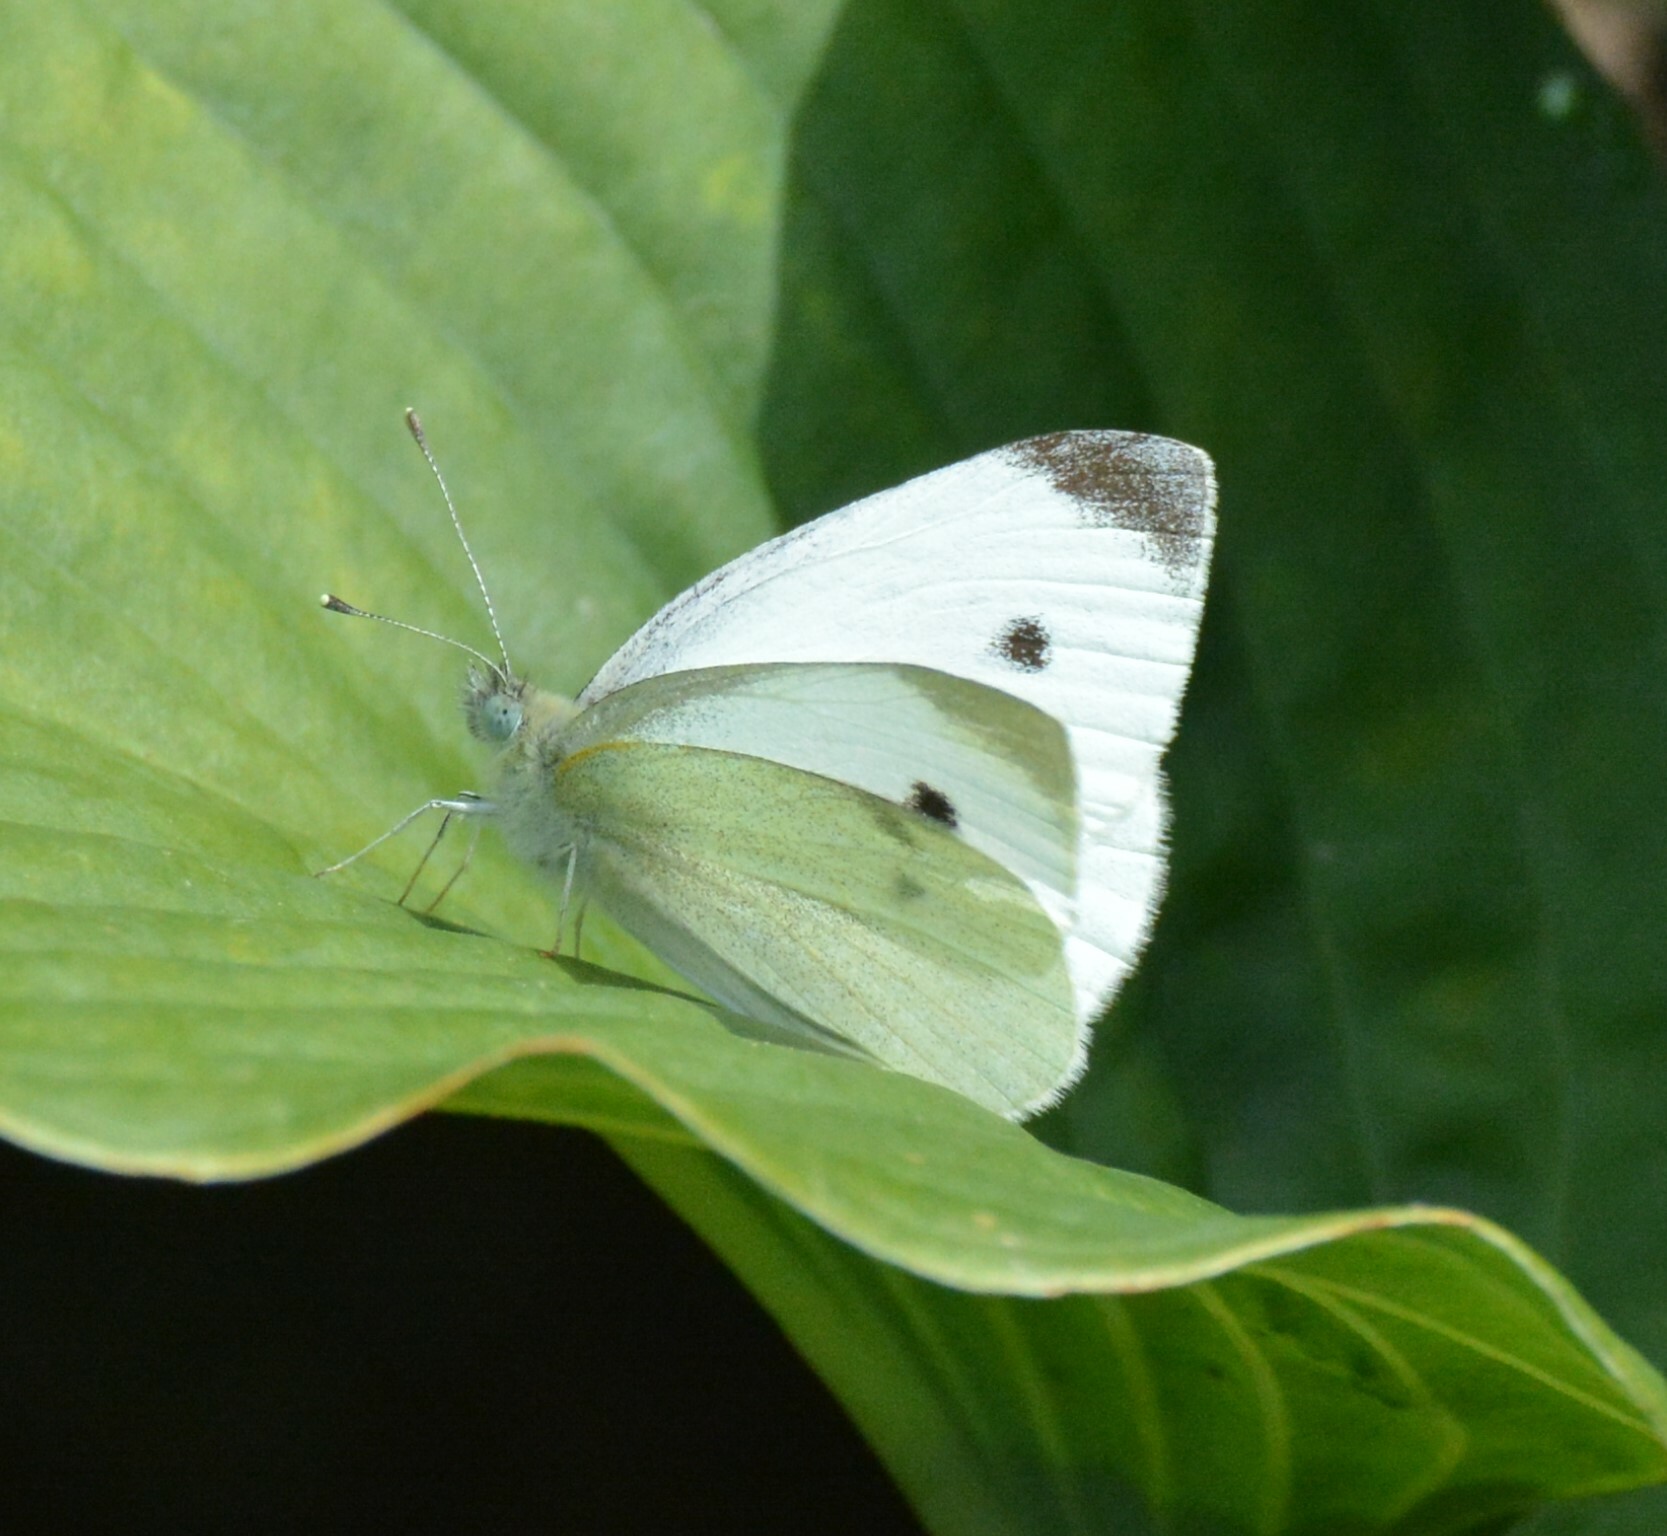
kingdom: Animalia
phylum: Arthropoda
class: Insecta
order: Lepidoptera
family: Pieridae
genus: Pieris
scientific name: Pieris rapae
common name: Small white
